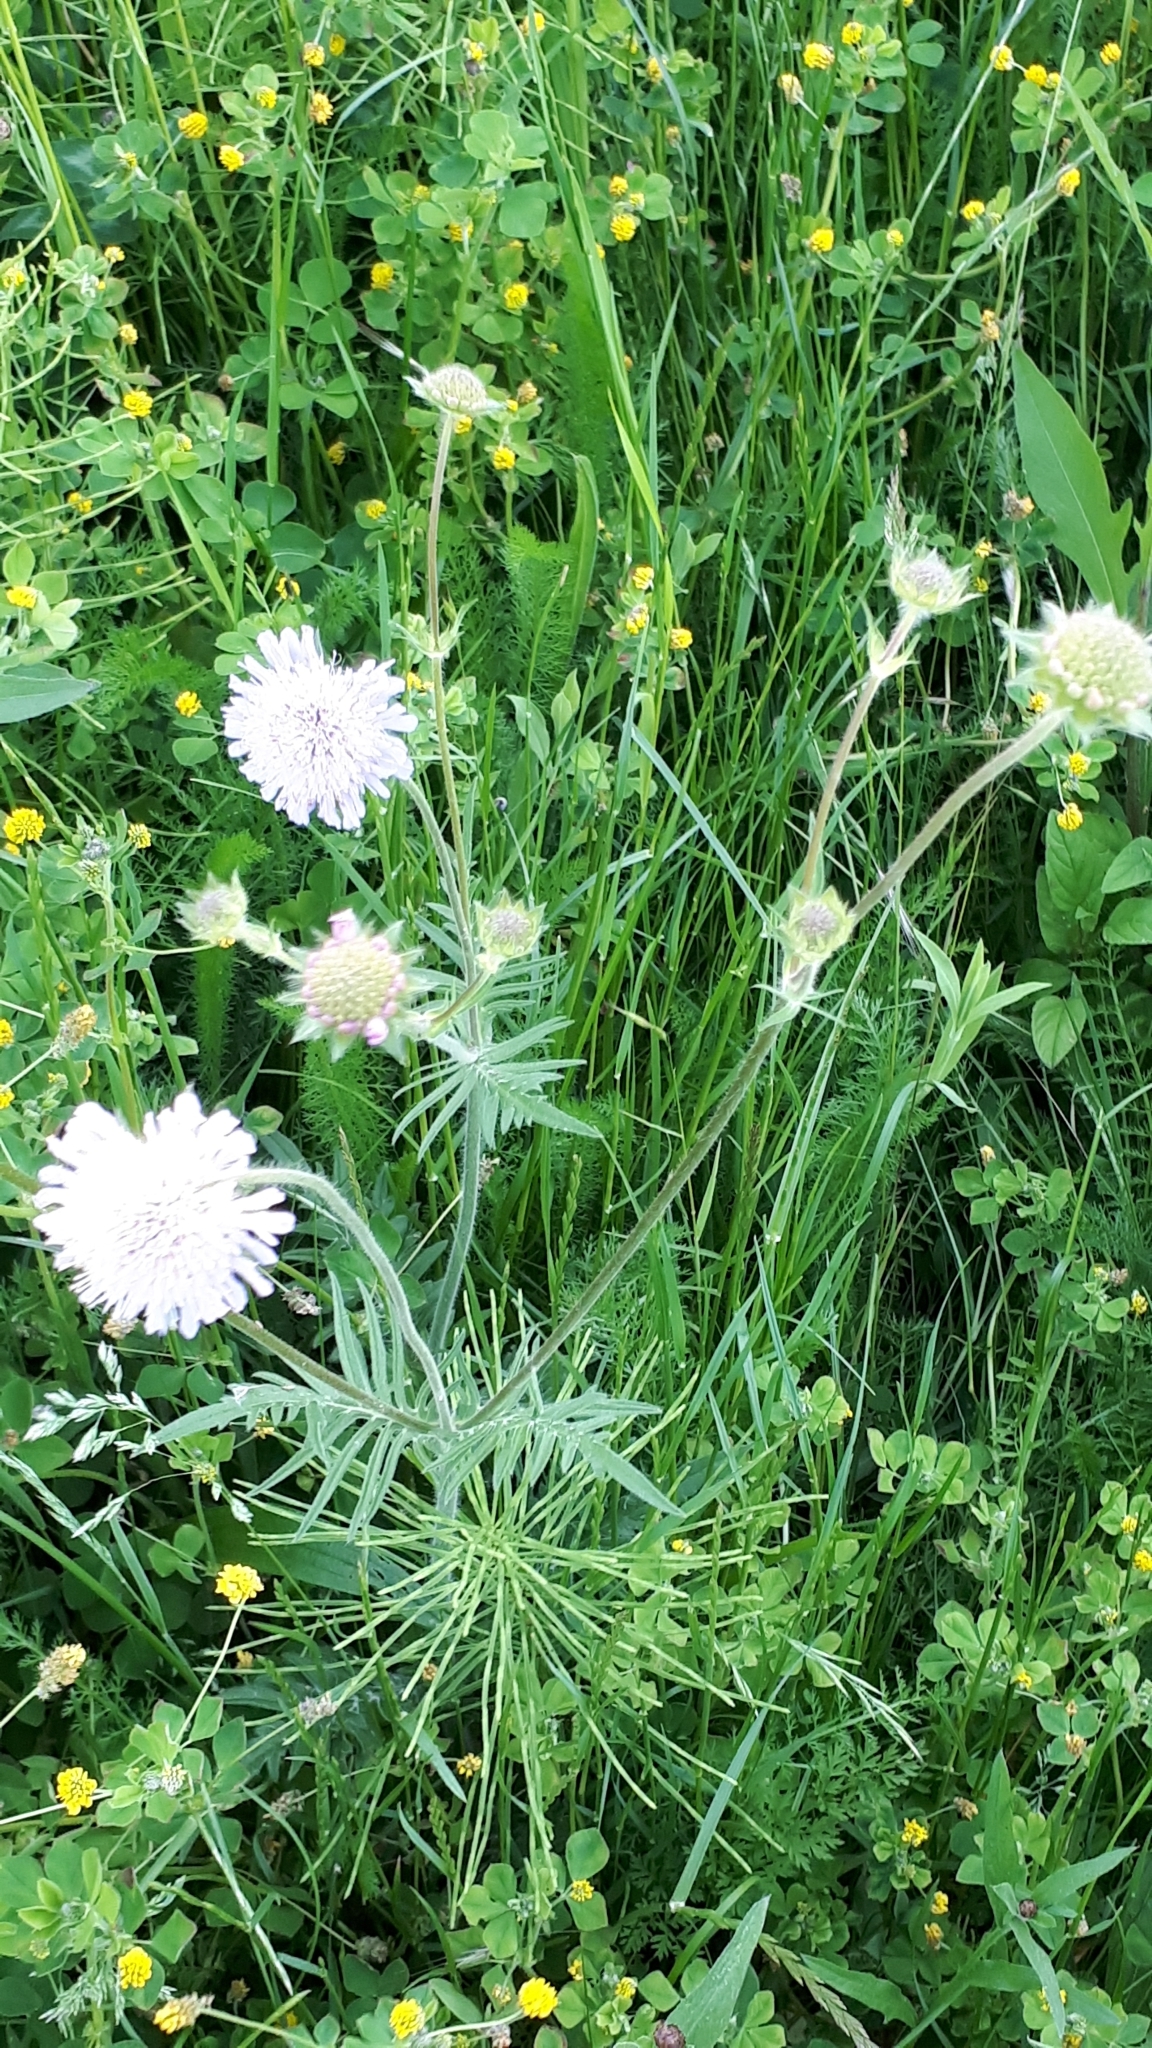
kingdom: Plantae
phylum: Tracheophyta
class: Magnoliopsida
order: Dipsacales
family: Caprifoliaceae
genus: Knautia
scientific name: Knautia arvensis
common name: Field scabiosa
